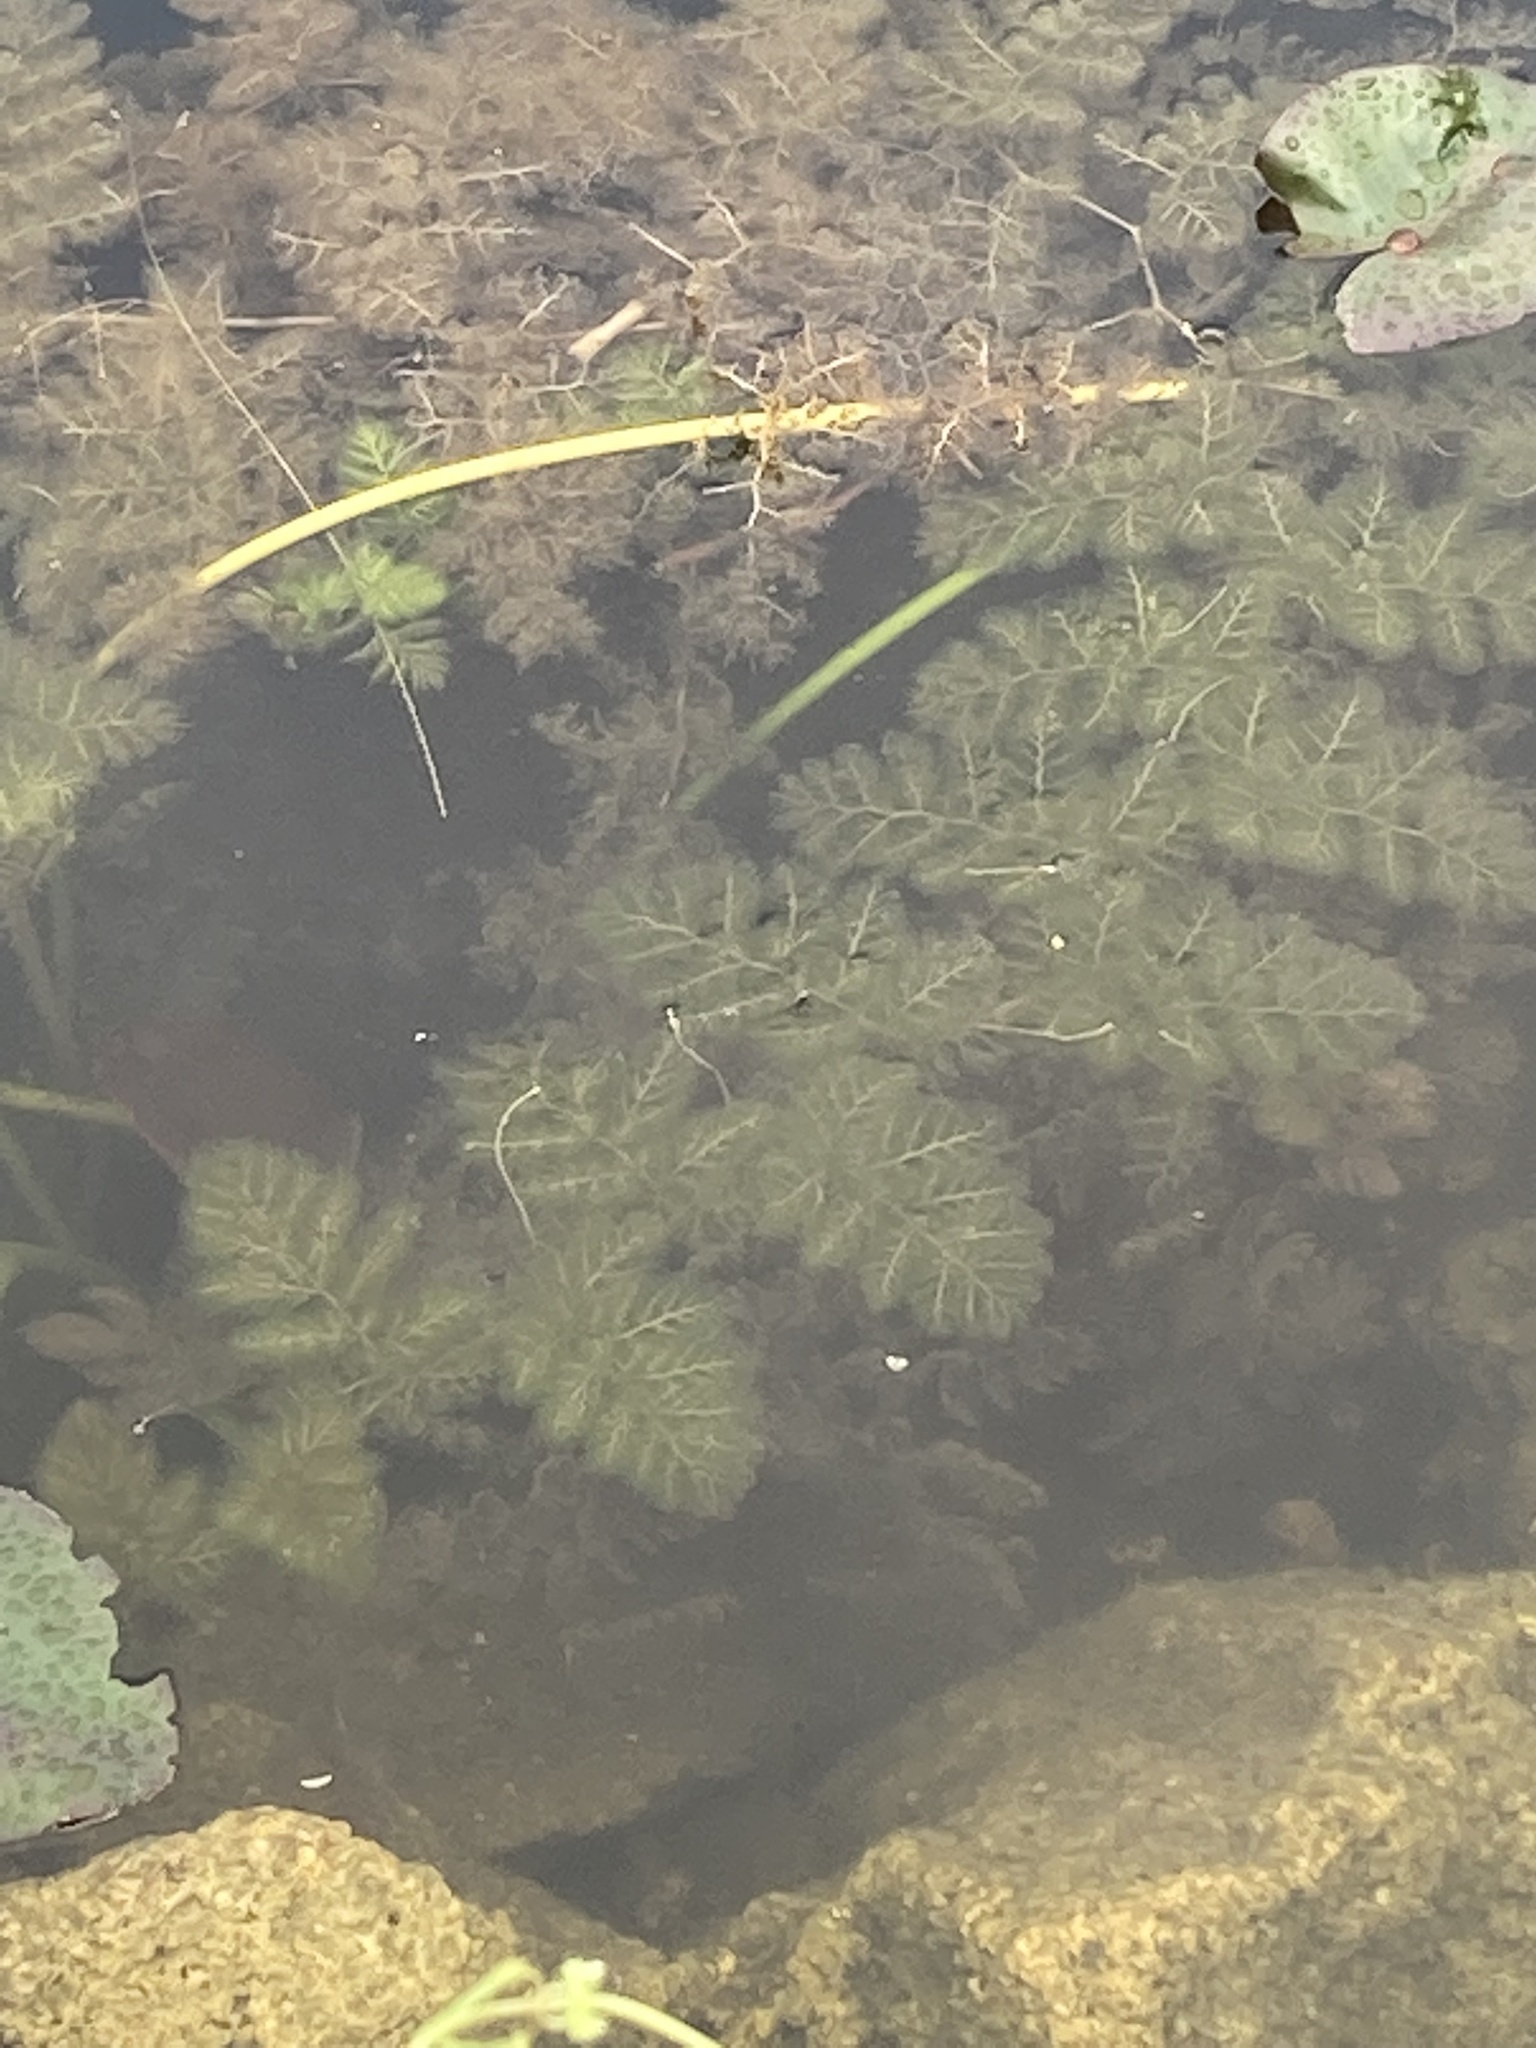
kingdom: Plantae
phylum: Tracheophyta
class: Magnoliopsida
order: Lamiales
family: Lentibulariaceae
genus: Utricularia
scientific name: Utricularia foliosa
